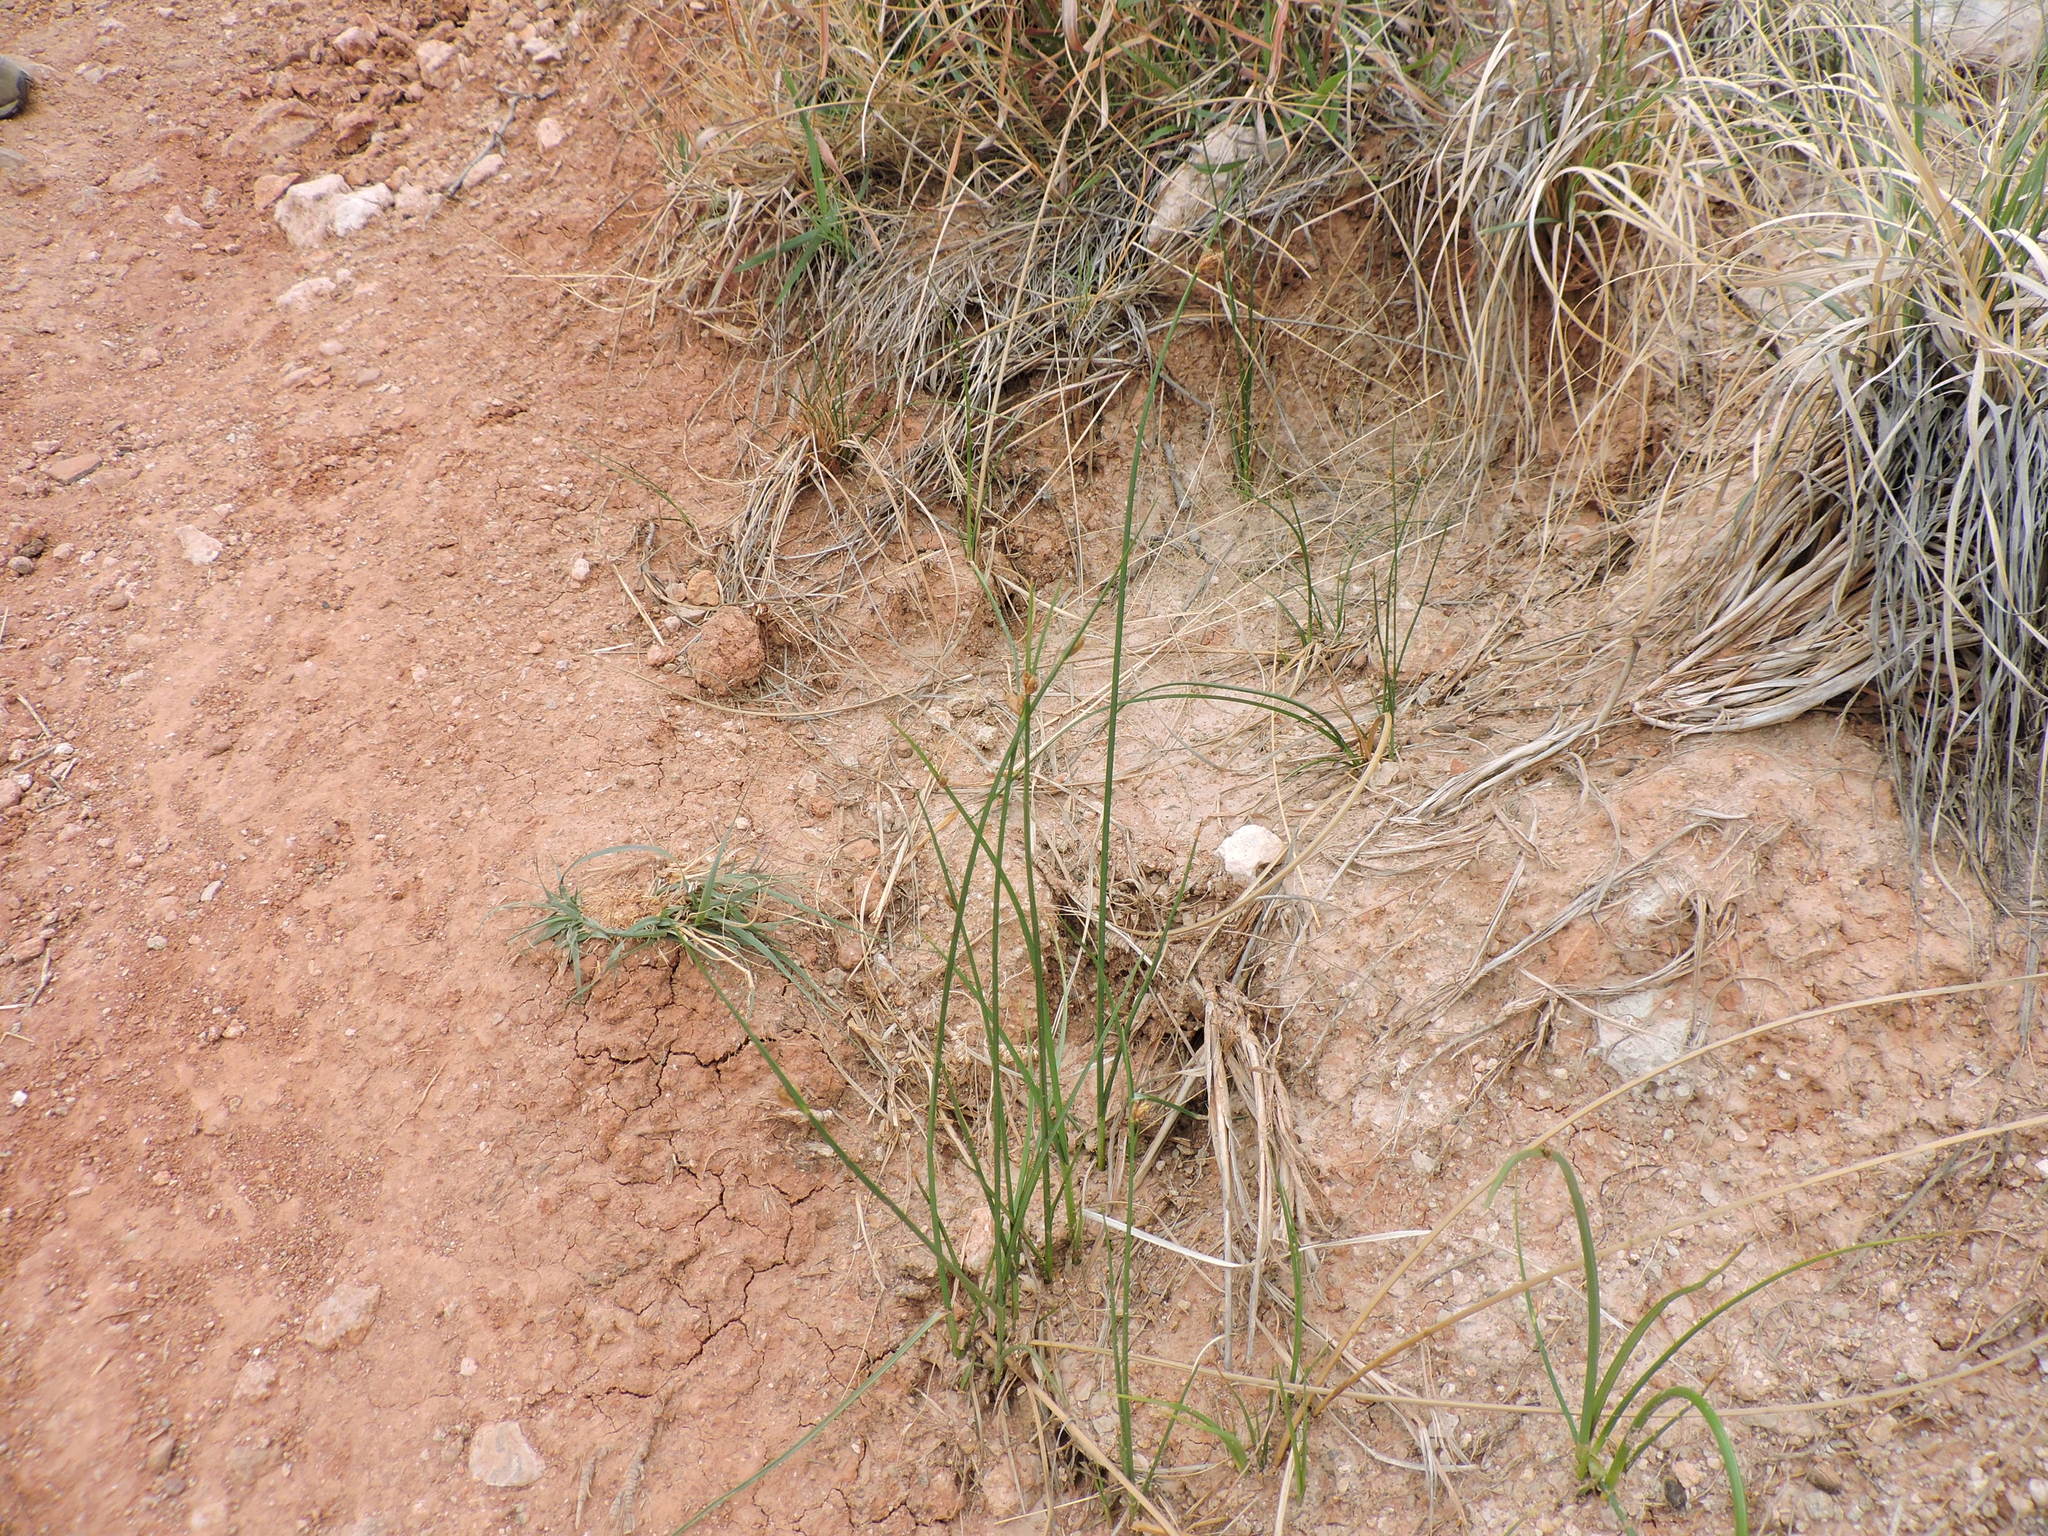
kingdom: Plantae
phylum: Tracheophyta
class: Liliopsida
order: Poales
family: Cyperaceae
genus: Schoenoplectus
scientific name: Schoenoplectus pungens
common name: Sharp club-rush
